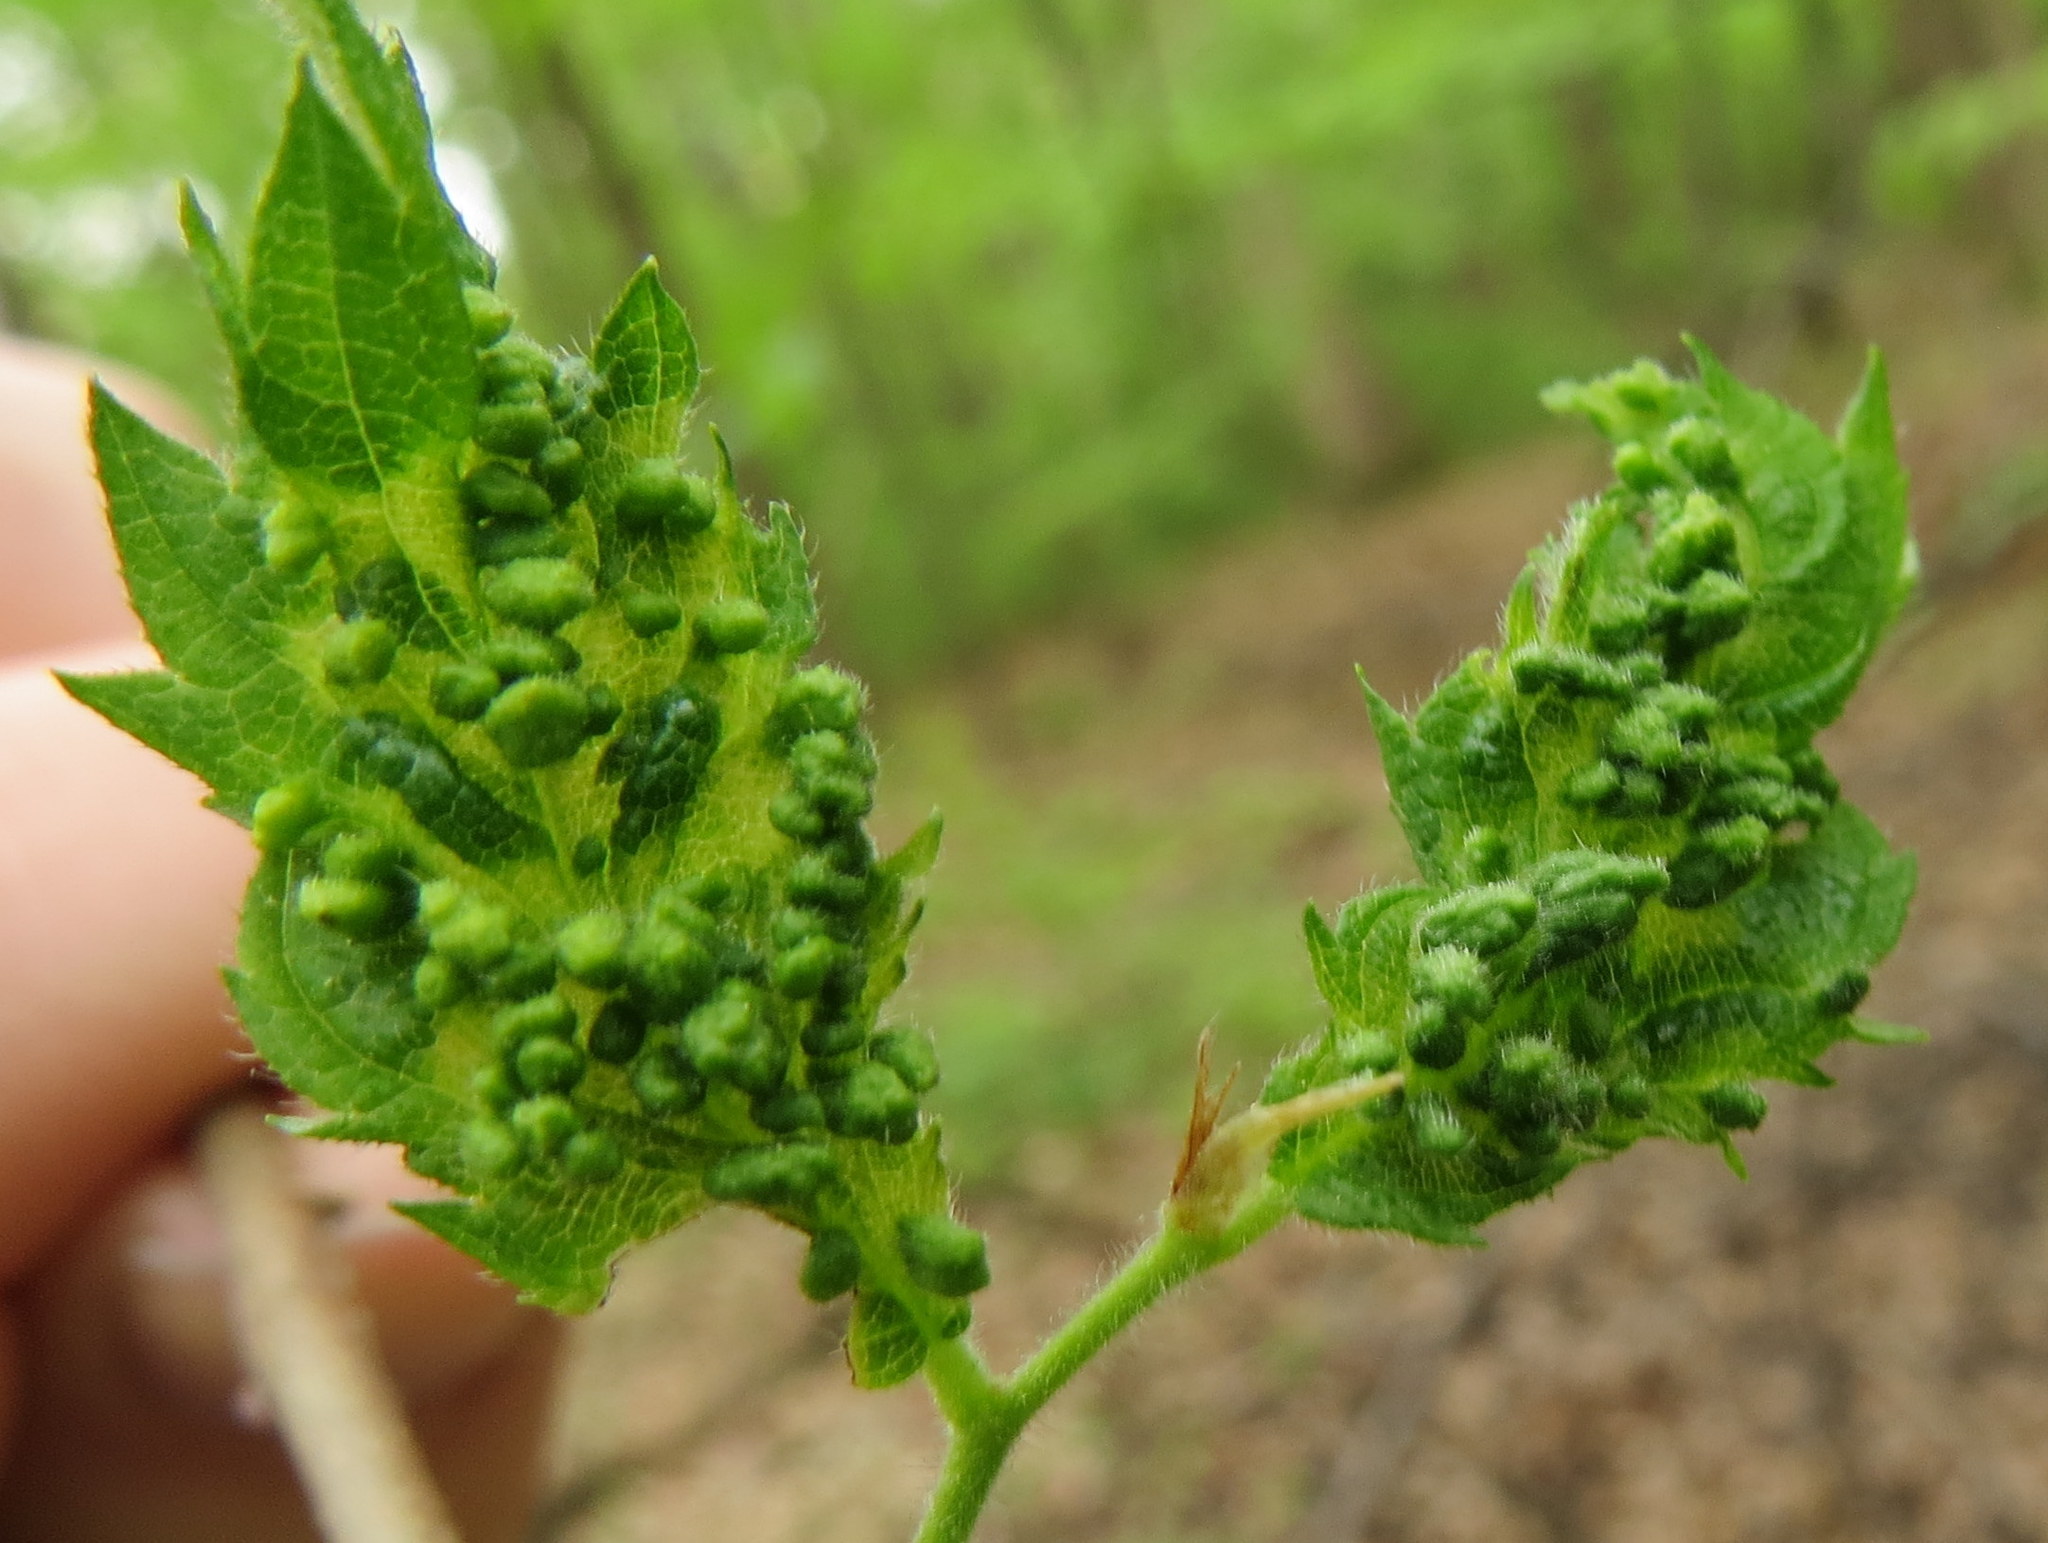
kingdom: Animalia
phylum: Arthropoda
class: Arachnida
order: Trombidiformes
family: Eriophyidae
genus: Aceria
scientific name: Aceria
